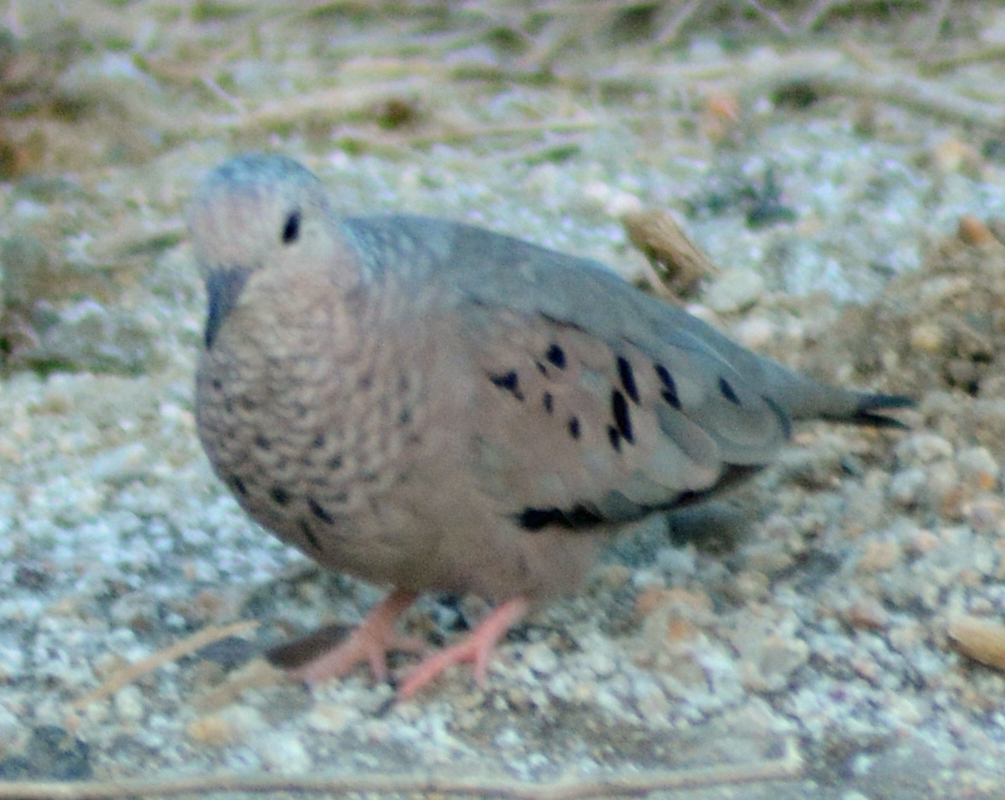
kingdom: Animalia
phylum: Chordata
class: Aves
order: Columbiformes
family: Columbidae
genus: Columbina
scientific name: Columbina passerina
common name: Common ground-dove
